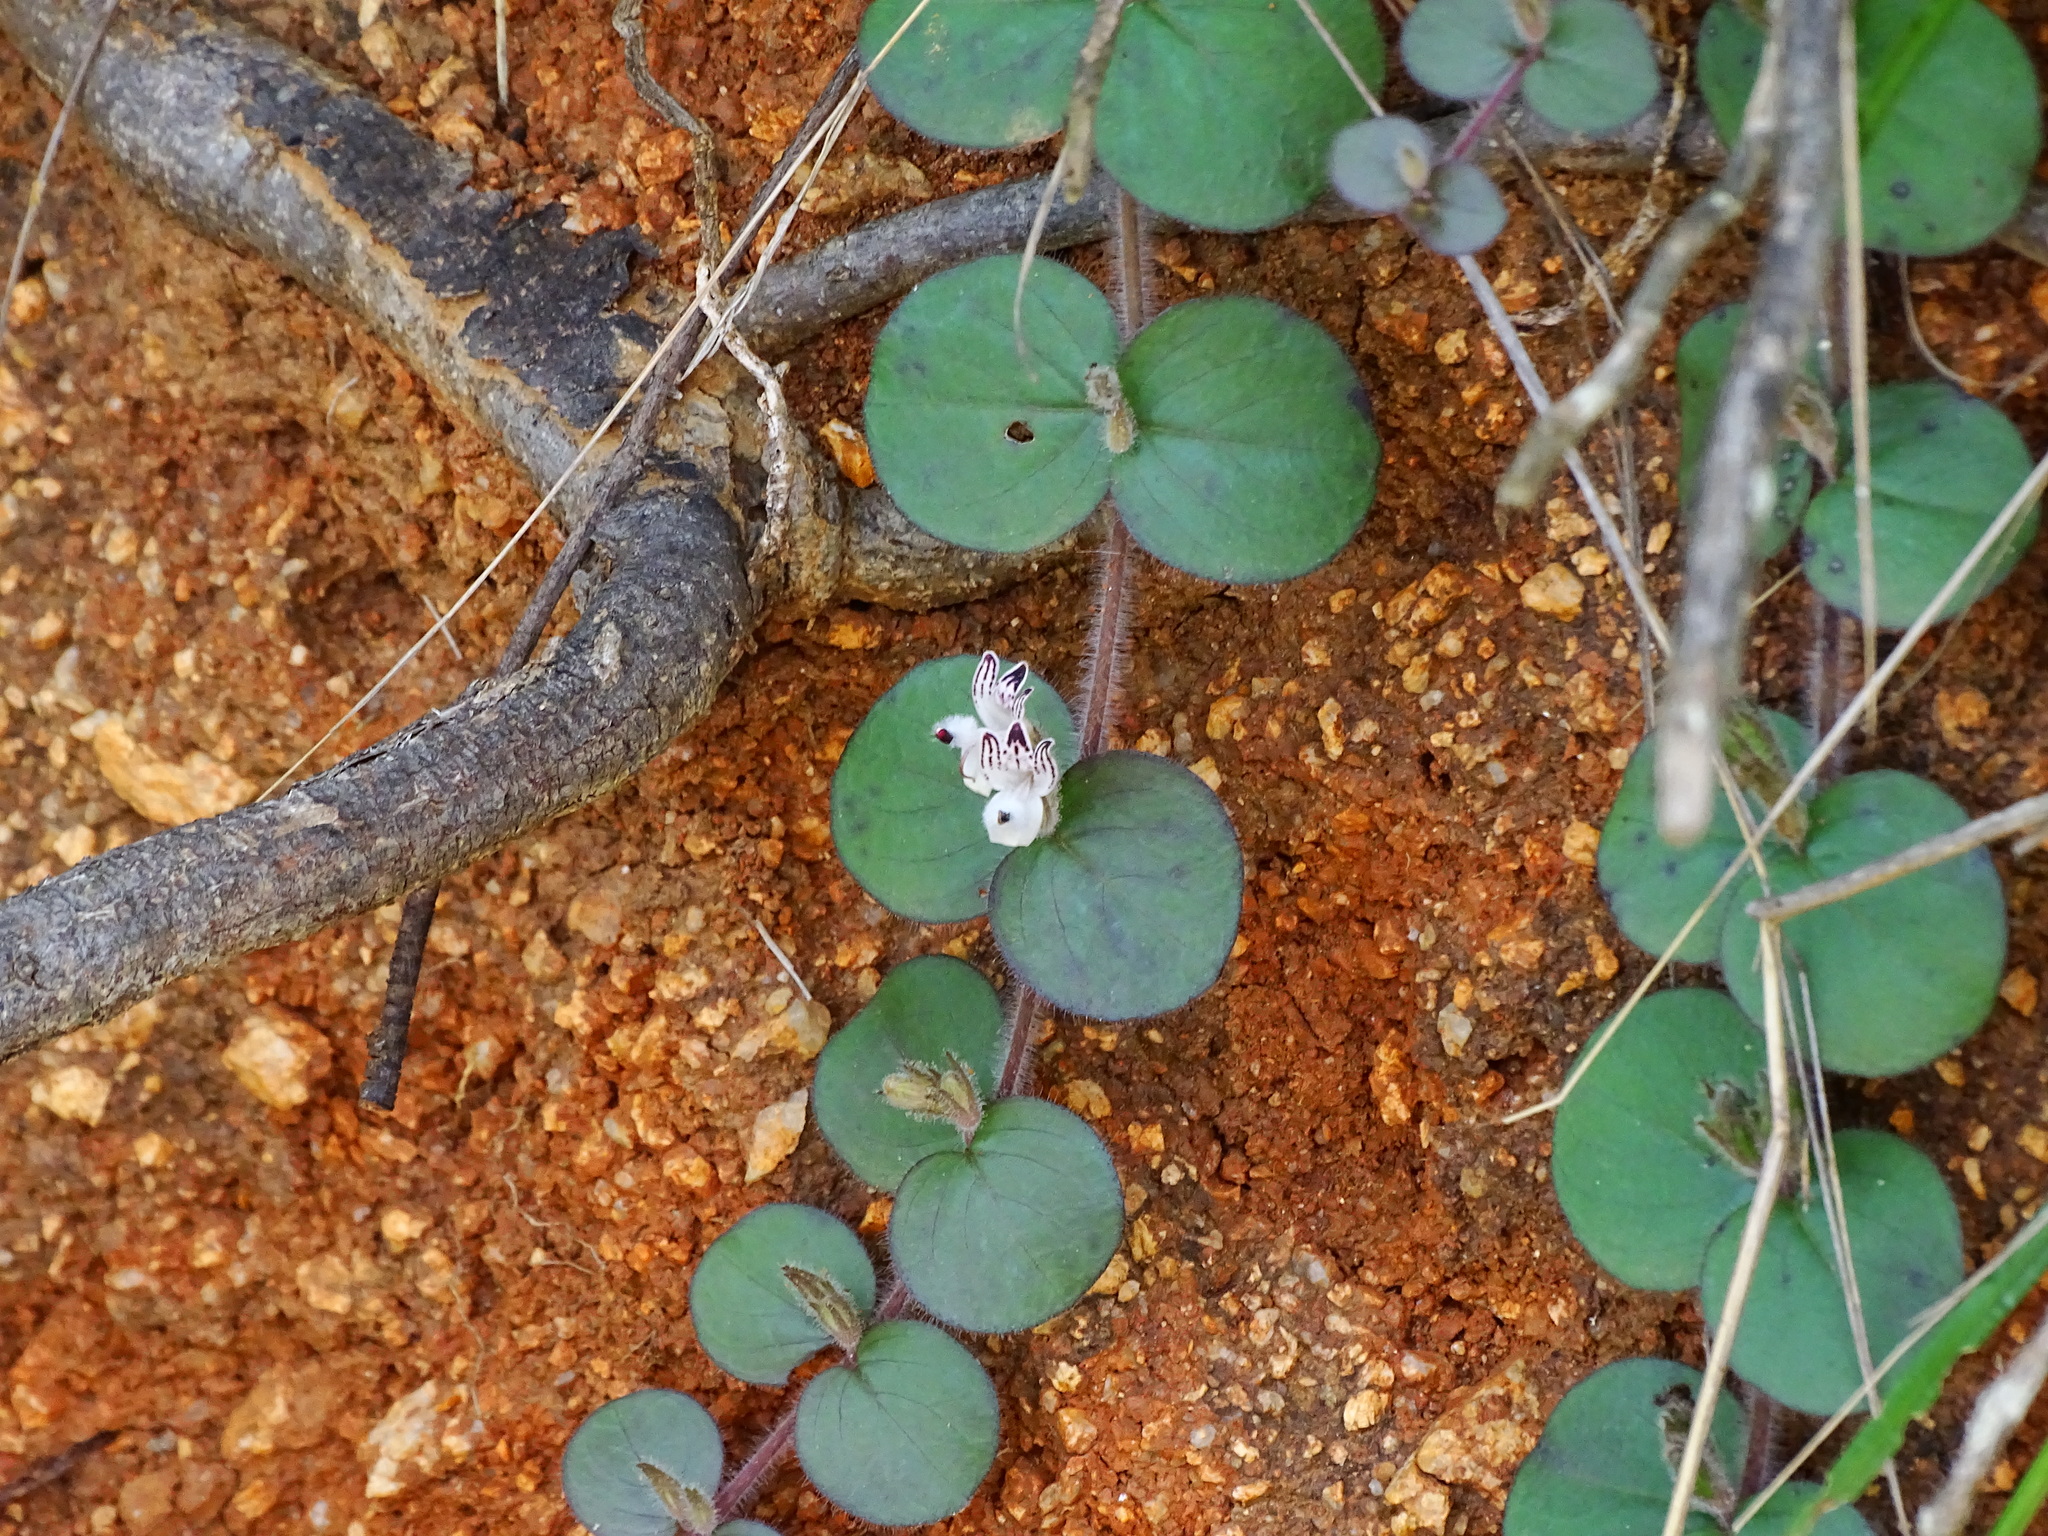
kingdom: Plantae
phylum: Tracheophyta
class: Magnoliopsida
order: Lamiales
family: Acanthaceae
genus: Andrographis
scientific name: Andrographis serpyllifolia
